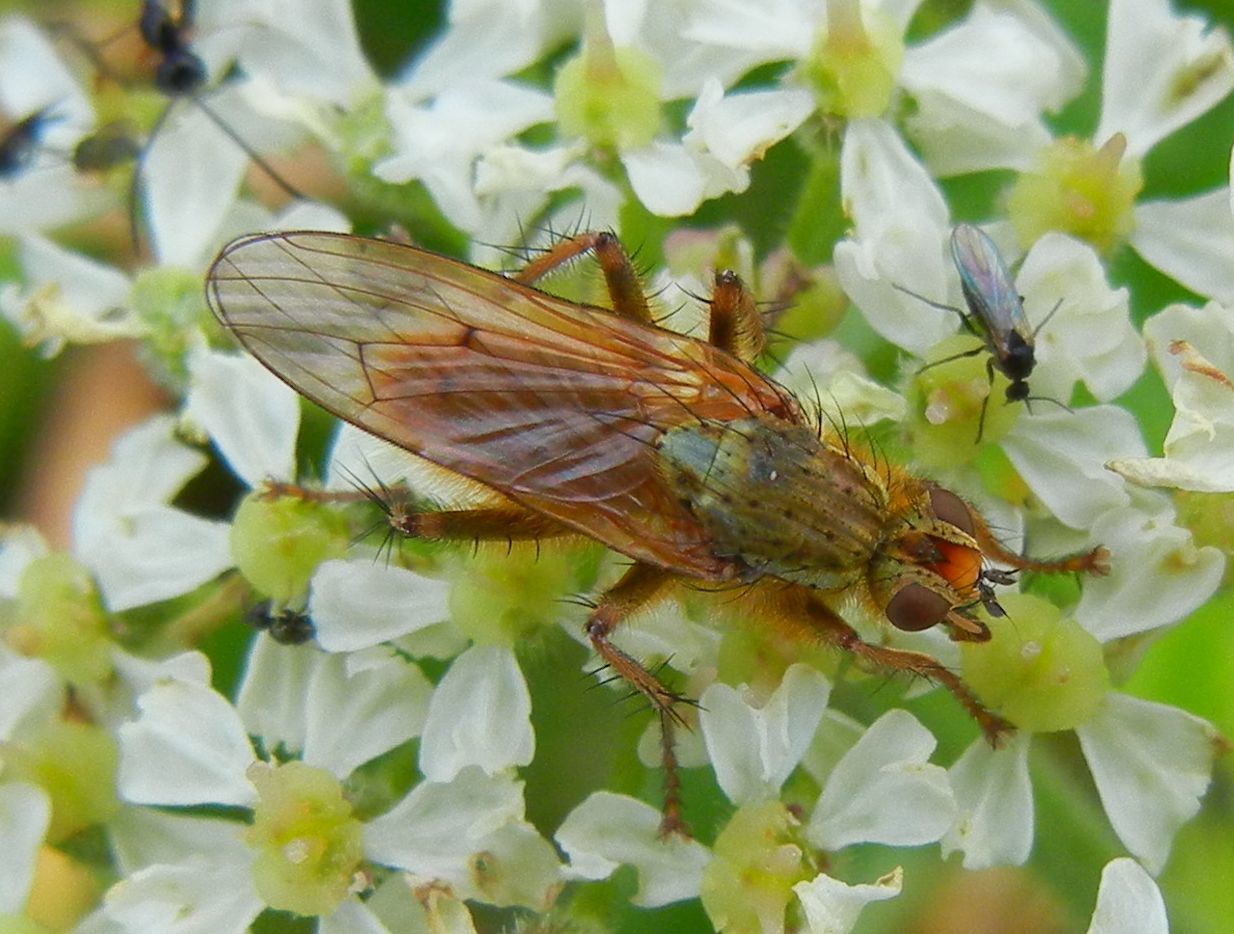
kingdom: Animalia
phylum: Arthropoda
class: Insecta
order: Diptera
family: Scathophagidae
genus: Scathophaga
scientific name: Scathophaga stercoraria
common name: Yellow dung fly
